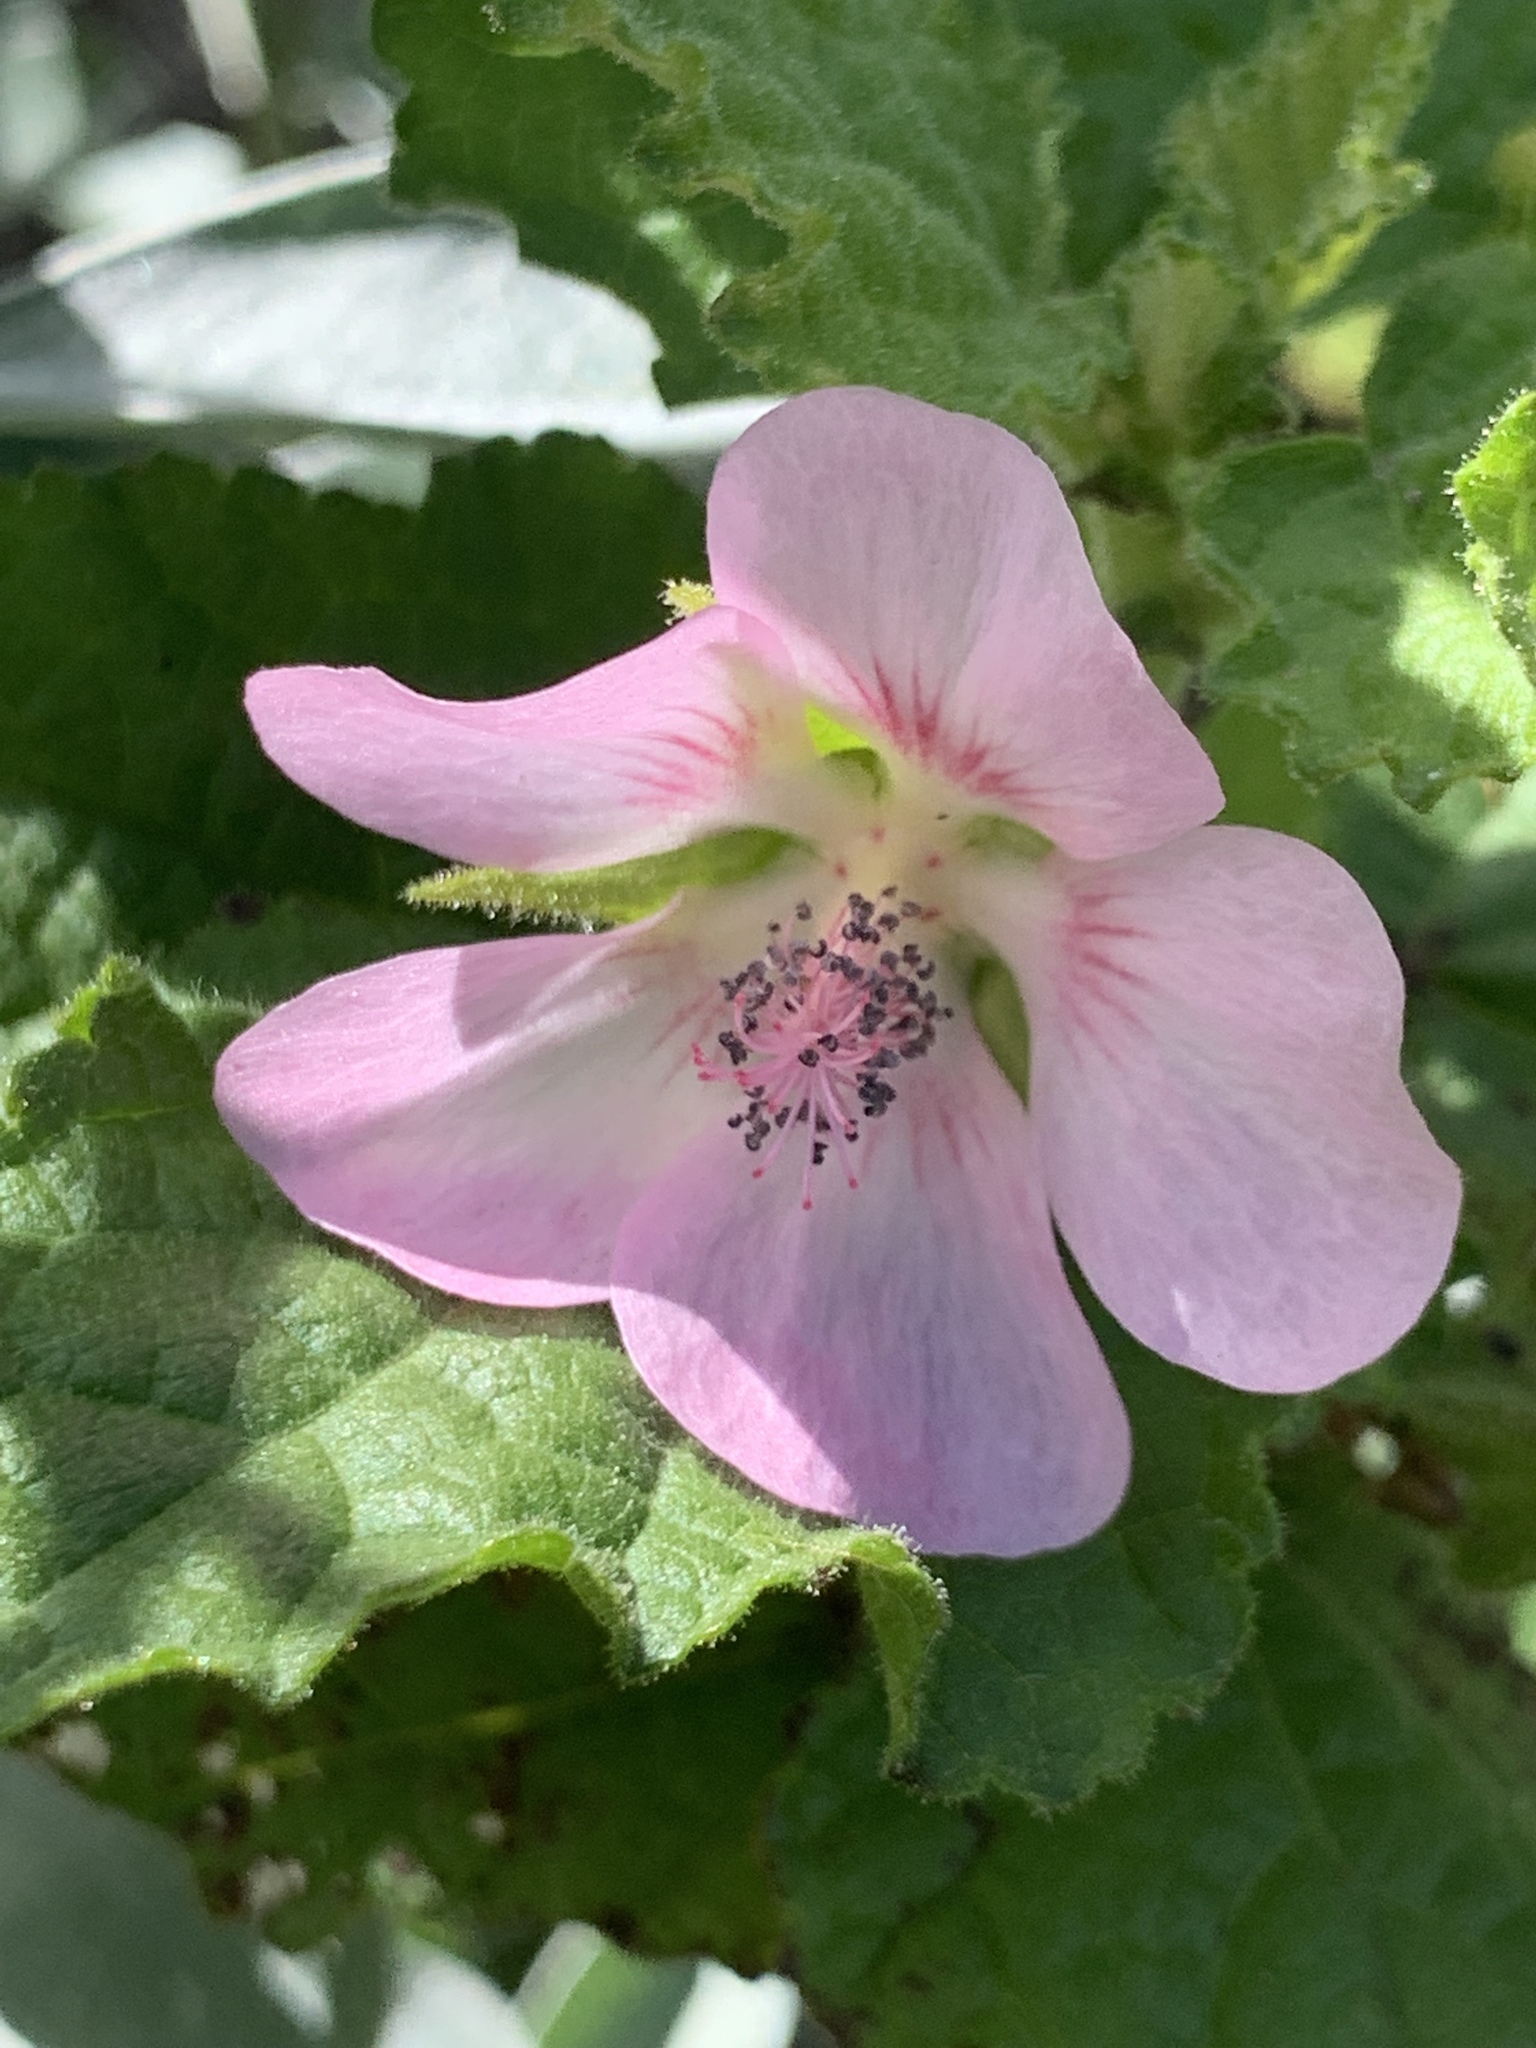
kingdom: Plantae
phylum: Tracheophyta
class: Magnoliopsida
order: Malvales
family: Malvaceae
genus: Anisodontea
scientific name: Anisodontea scabrosa
